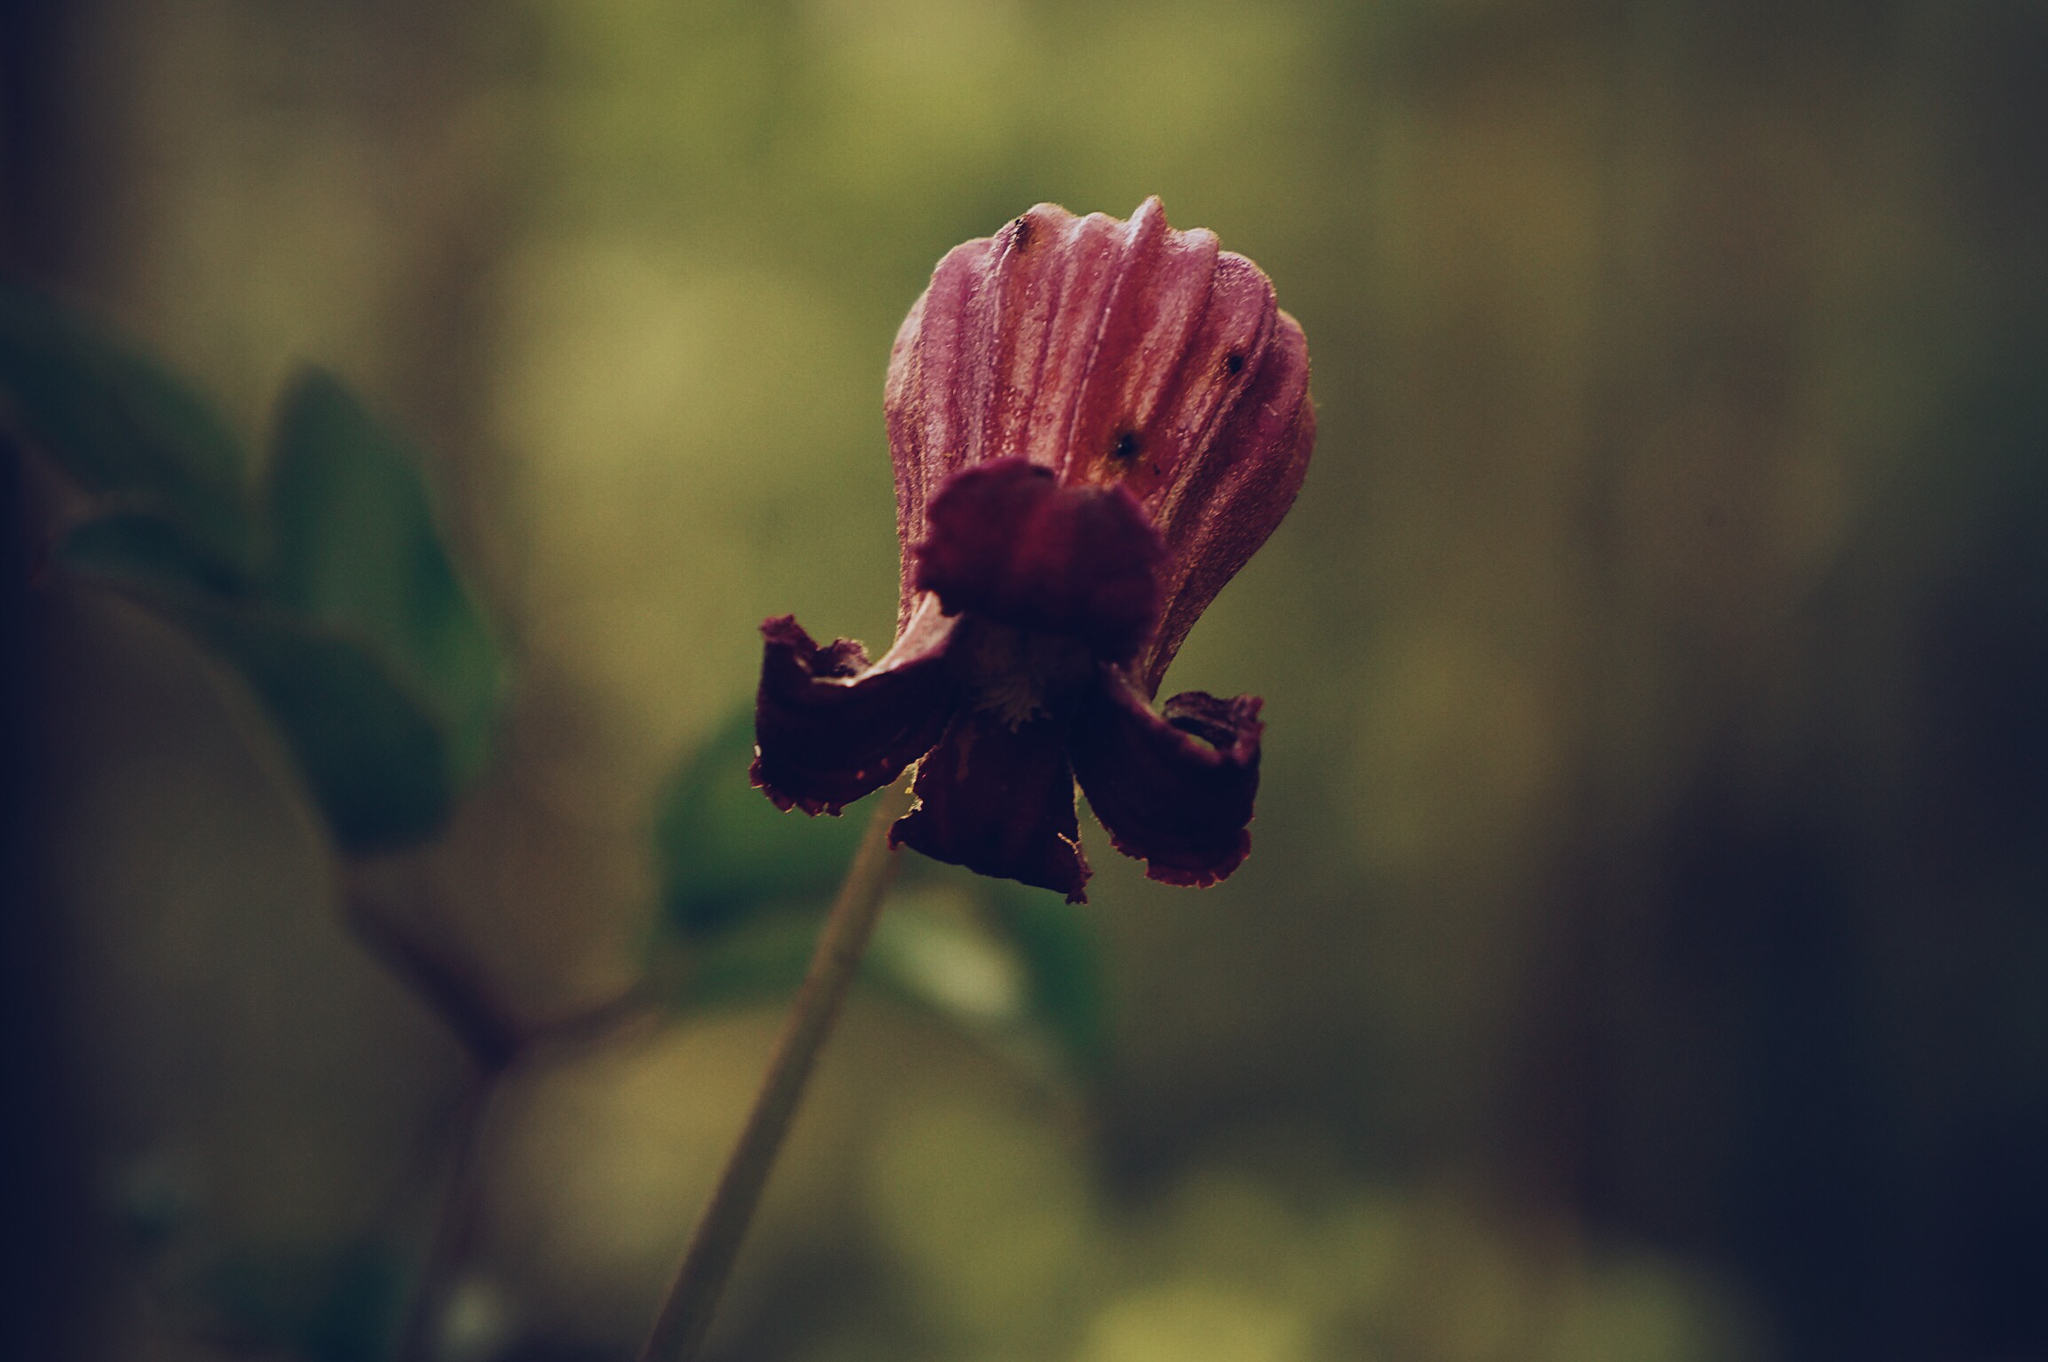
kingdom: Plantae
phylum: Tracheophyta
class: Magnoliopsida
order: Ranunculales
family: Ranunculaceae
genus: Clematis
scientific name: Clematis pitcheri
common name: Bellflower clematis
